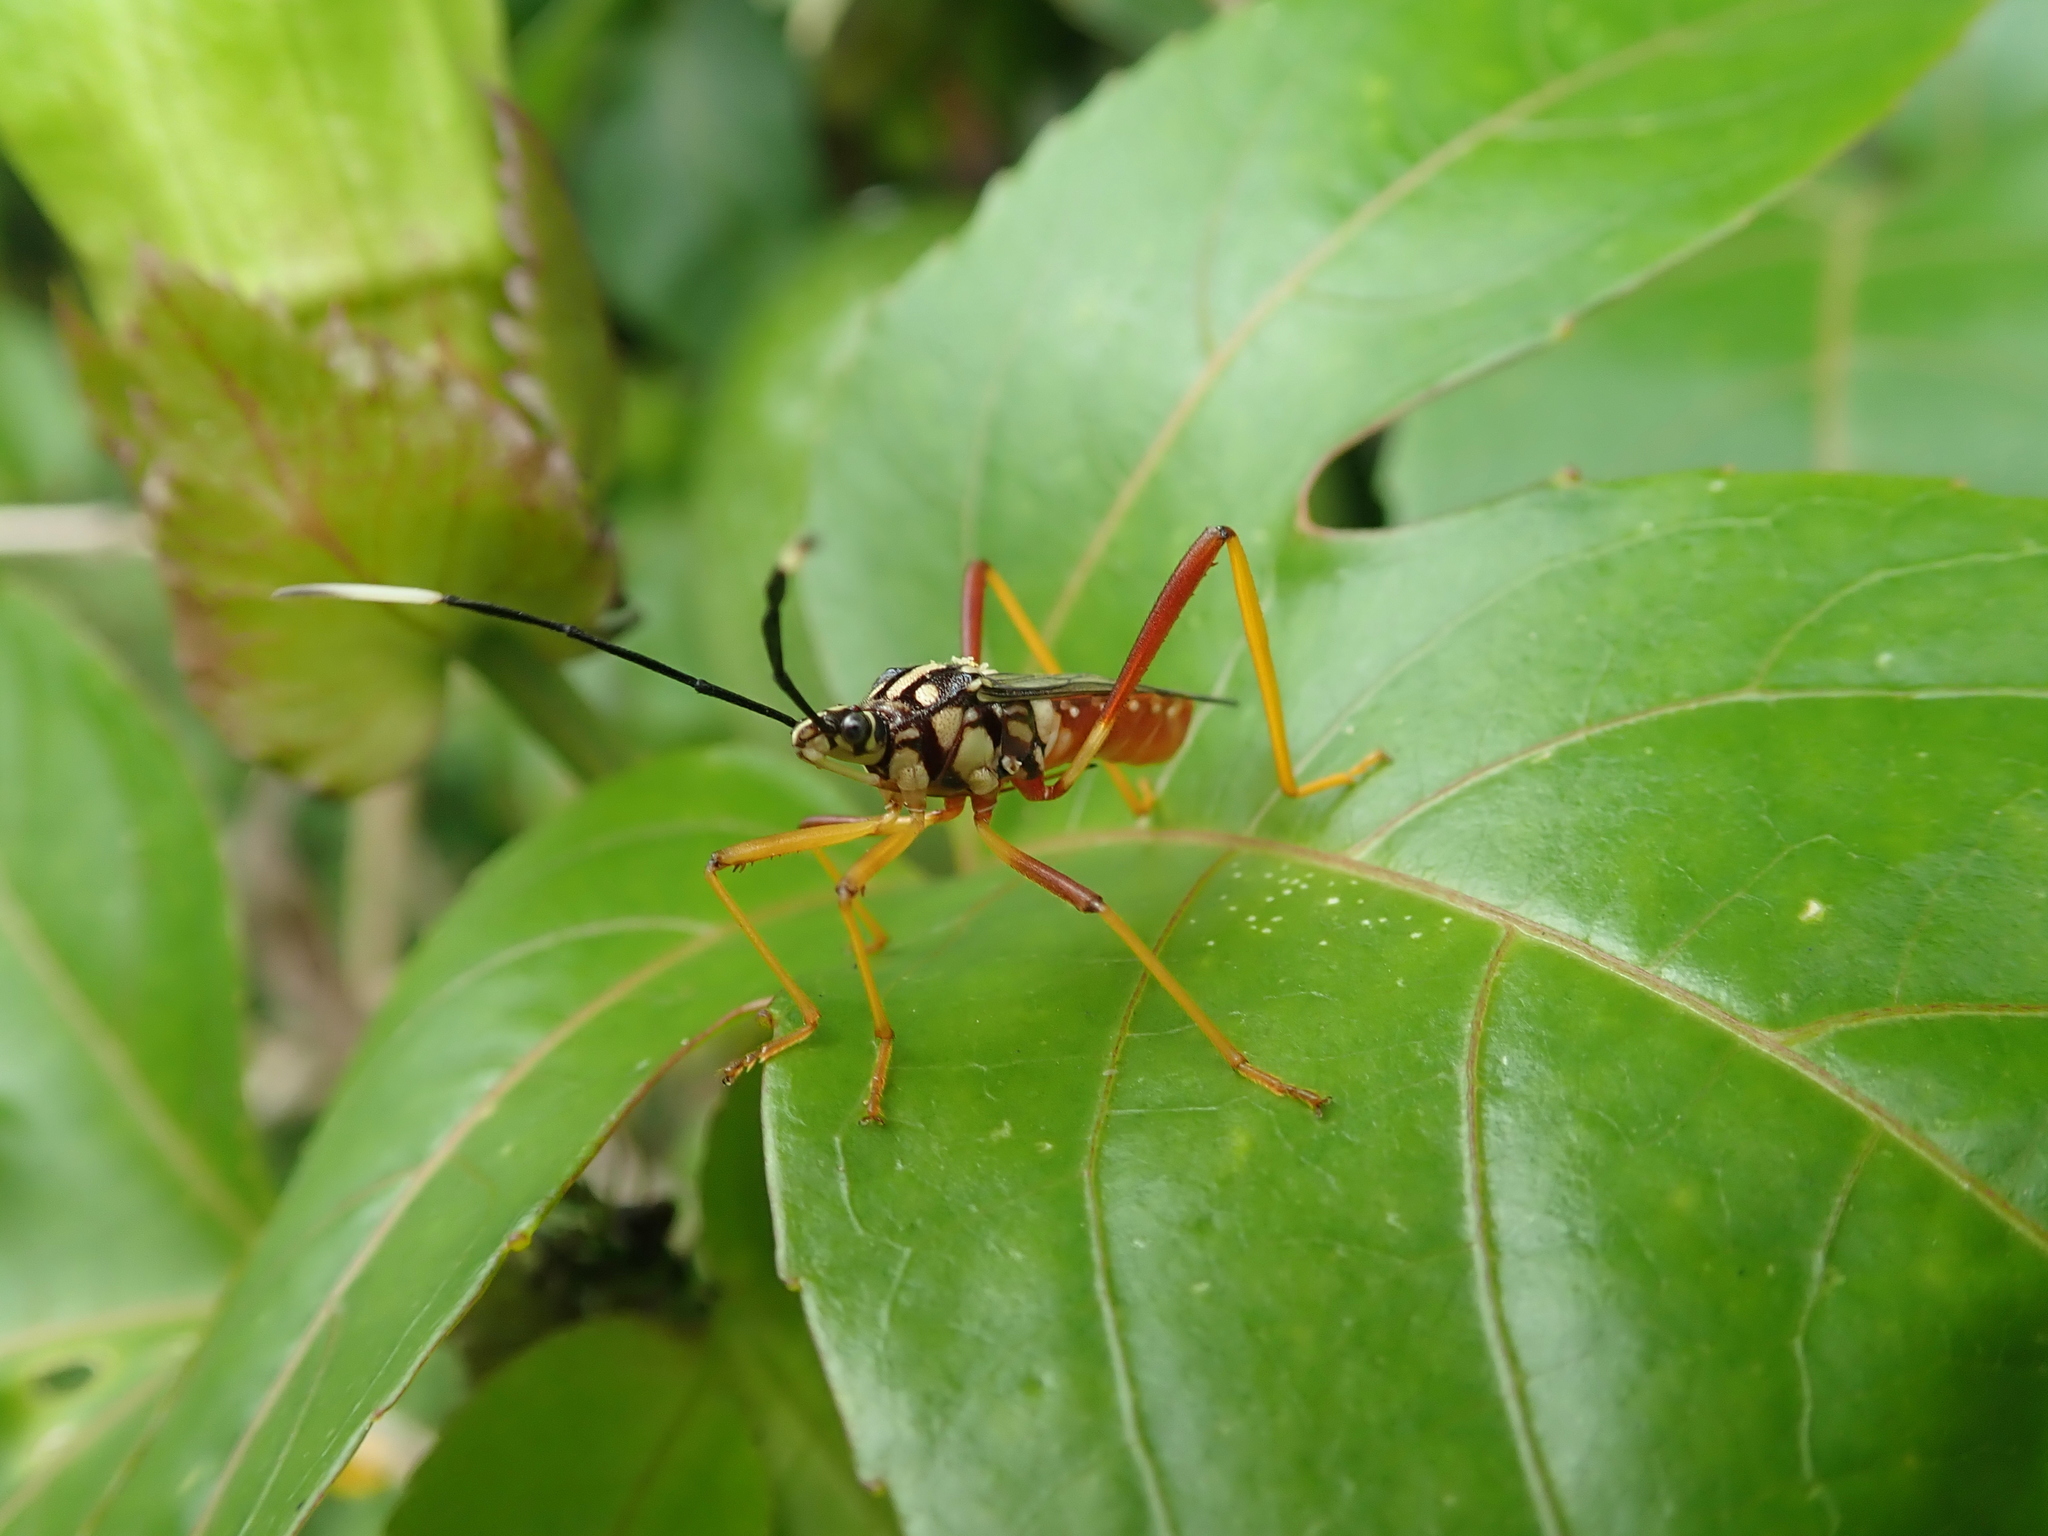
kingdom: Animalia
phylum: Arthropoda
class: Insecta
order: Hemiptera
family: Coreidae
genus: Holhymenia
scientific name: Holhymenia histrio
